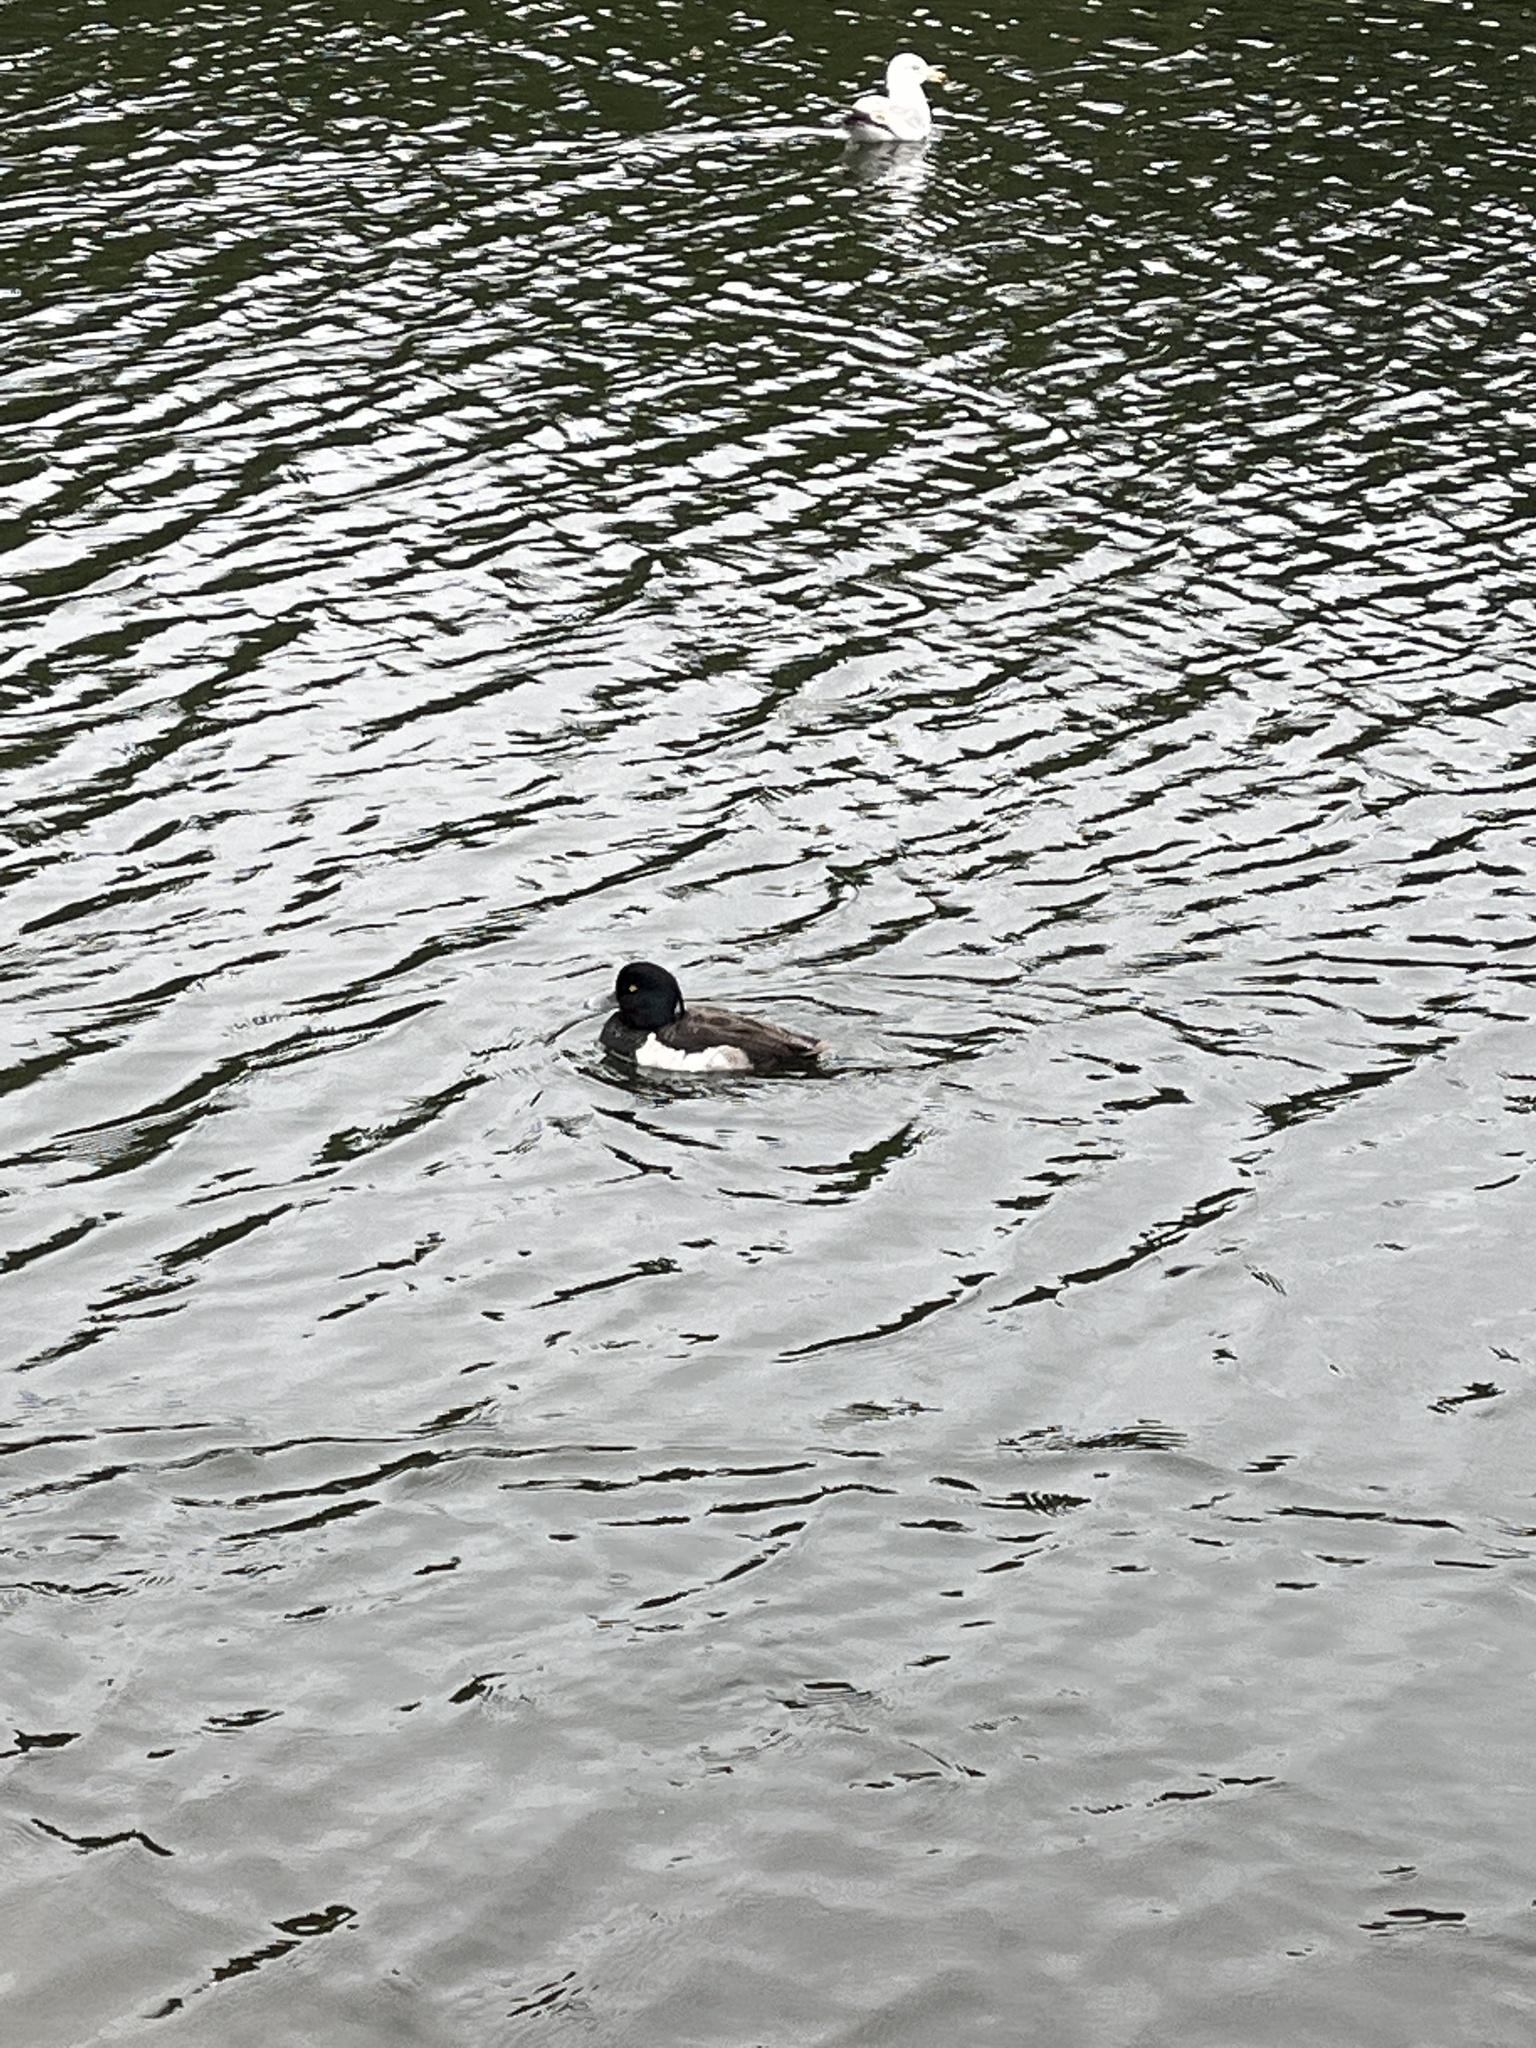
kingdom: Animalia
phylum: Chordata
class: Aves
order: Anseriformes
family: Anatidae
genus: Aythya
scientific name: Aythya fuligula
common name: Tufted duck
